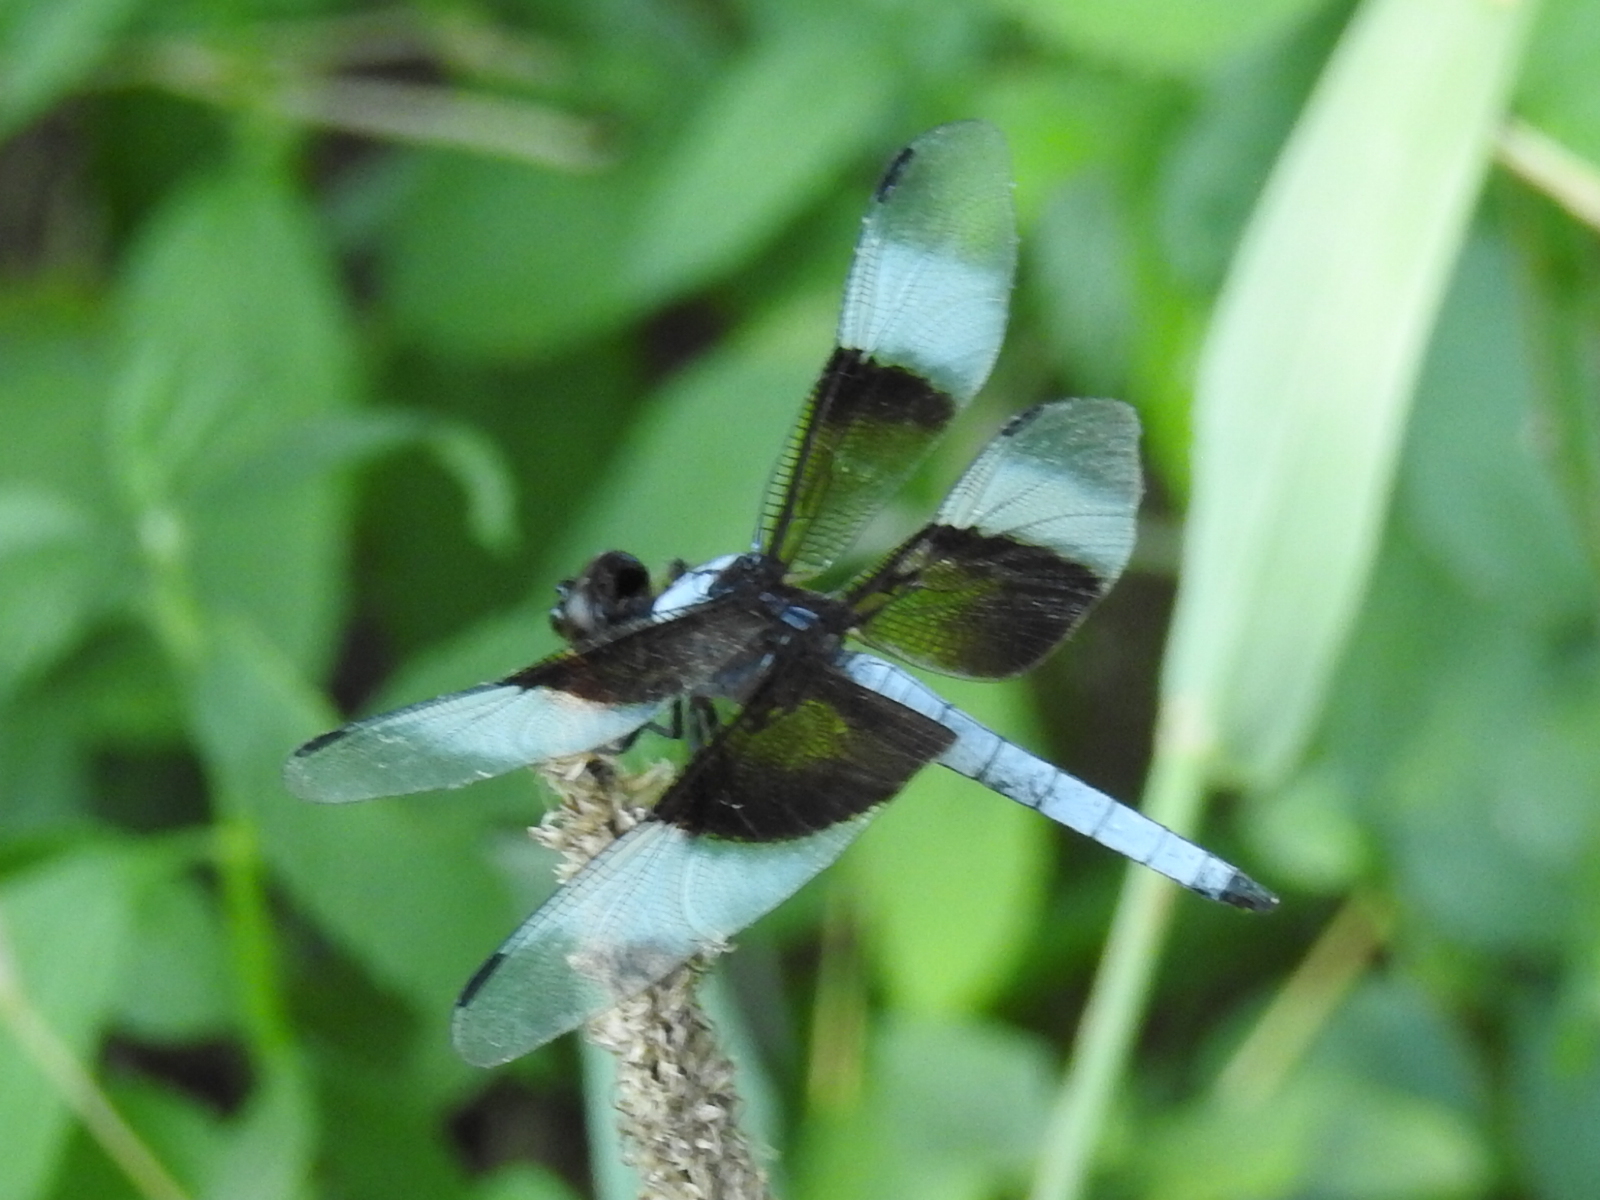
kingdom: Animalia
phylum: Arthropoda
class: Insecta
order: Odonata
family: Libellulidae
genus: Libellula
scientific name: Libellula luctuosa
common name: Widow skimmer
